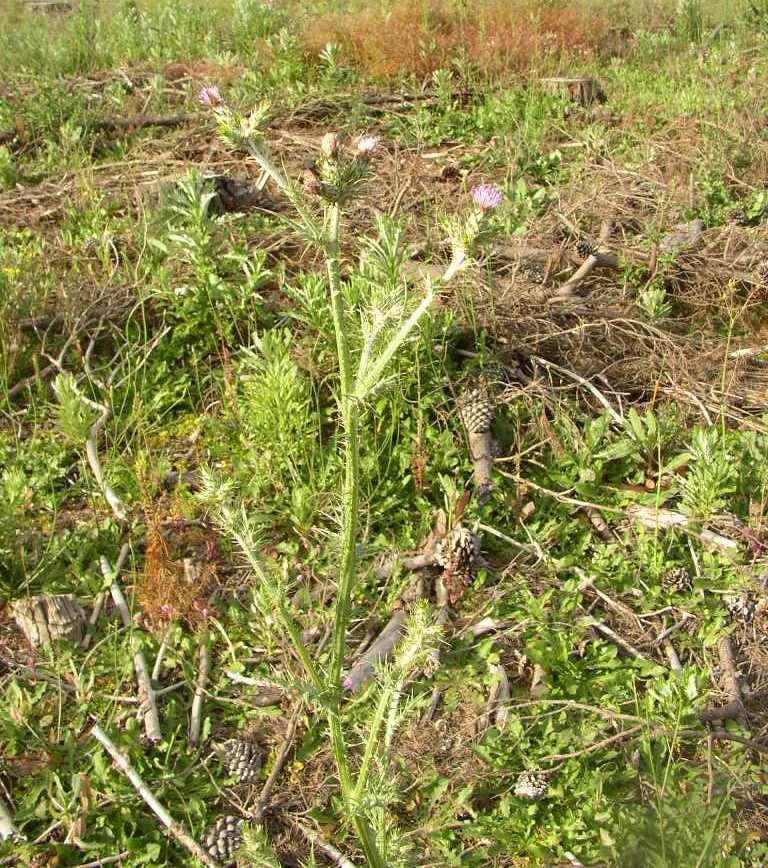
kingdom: Plantae
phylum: Tracheophyta
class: Magnoliopsida
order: Asterales
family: Asteraceae
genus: Cirsium
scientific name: Cirsium vulgare
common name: Bull thistle
